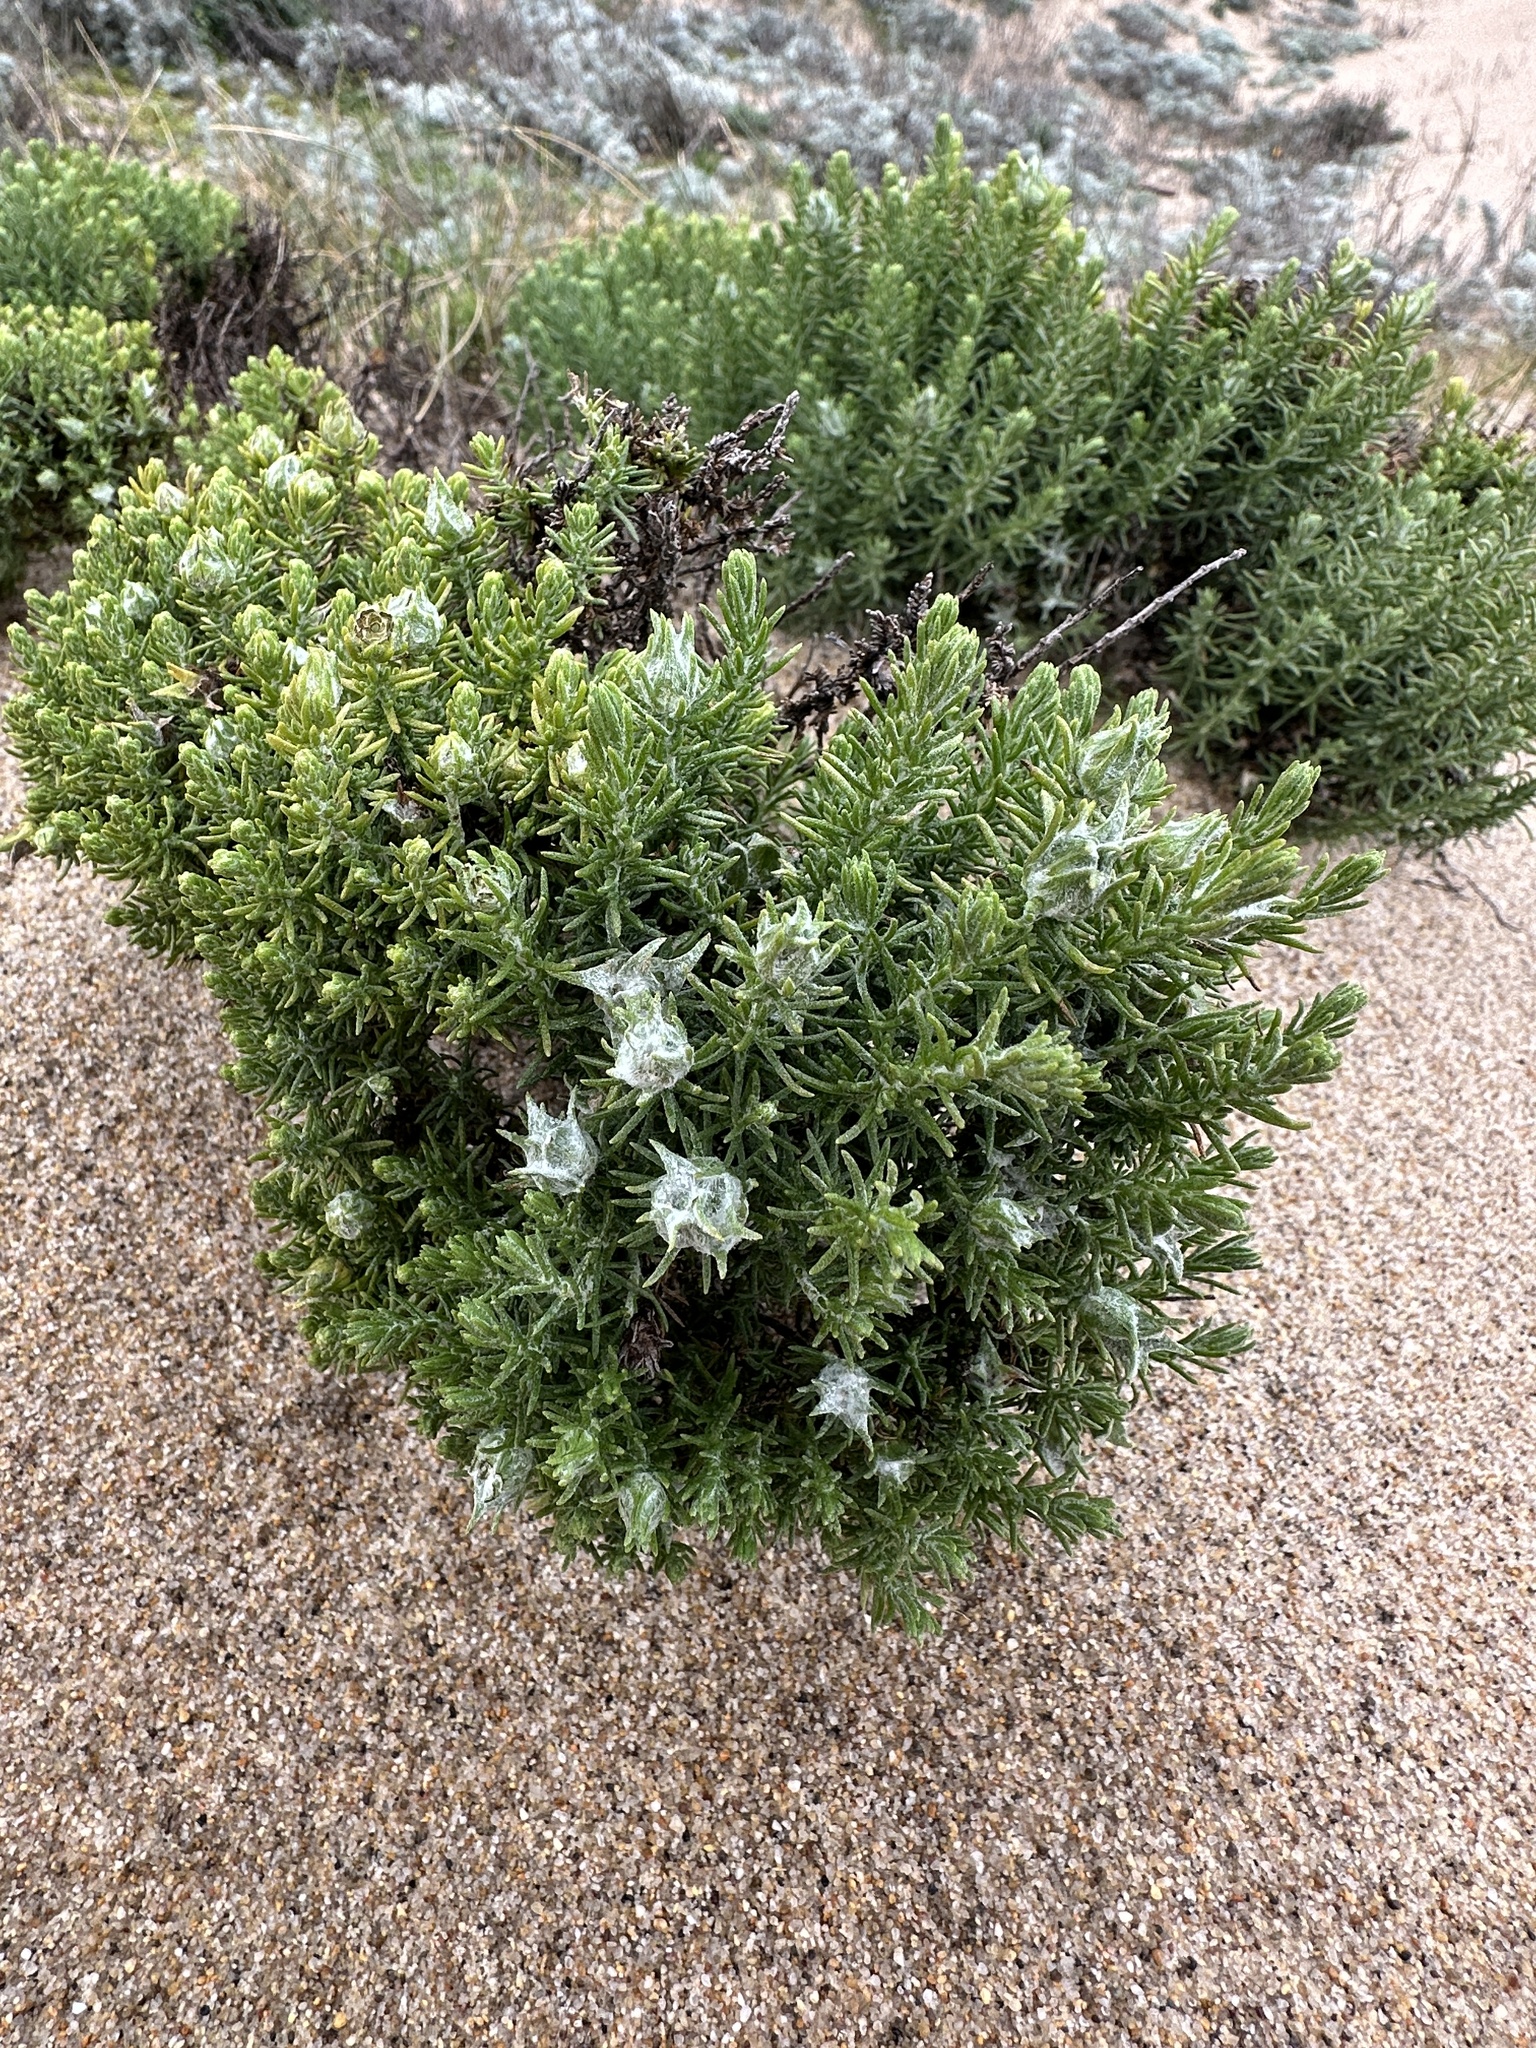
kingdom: Plantae
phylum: Tracheophyta
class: Magnoliopsida
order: Asterales
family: Asteraceae
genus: Ericameria
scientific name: Ericameria ericoides
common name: California goldenbush
